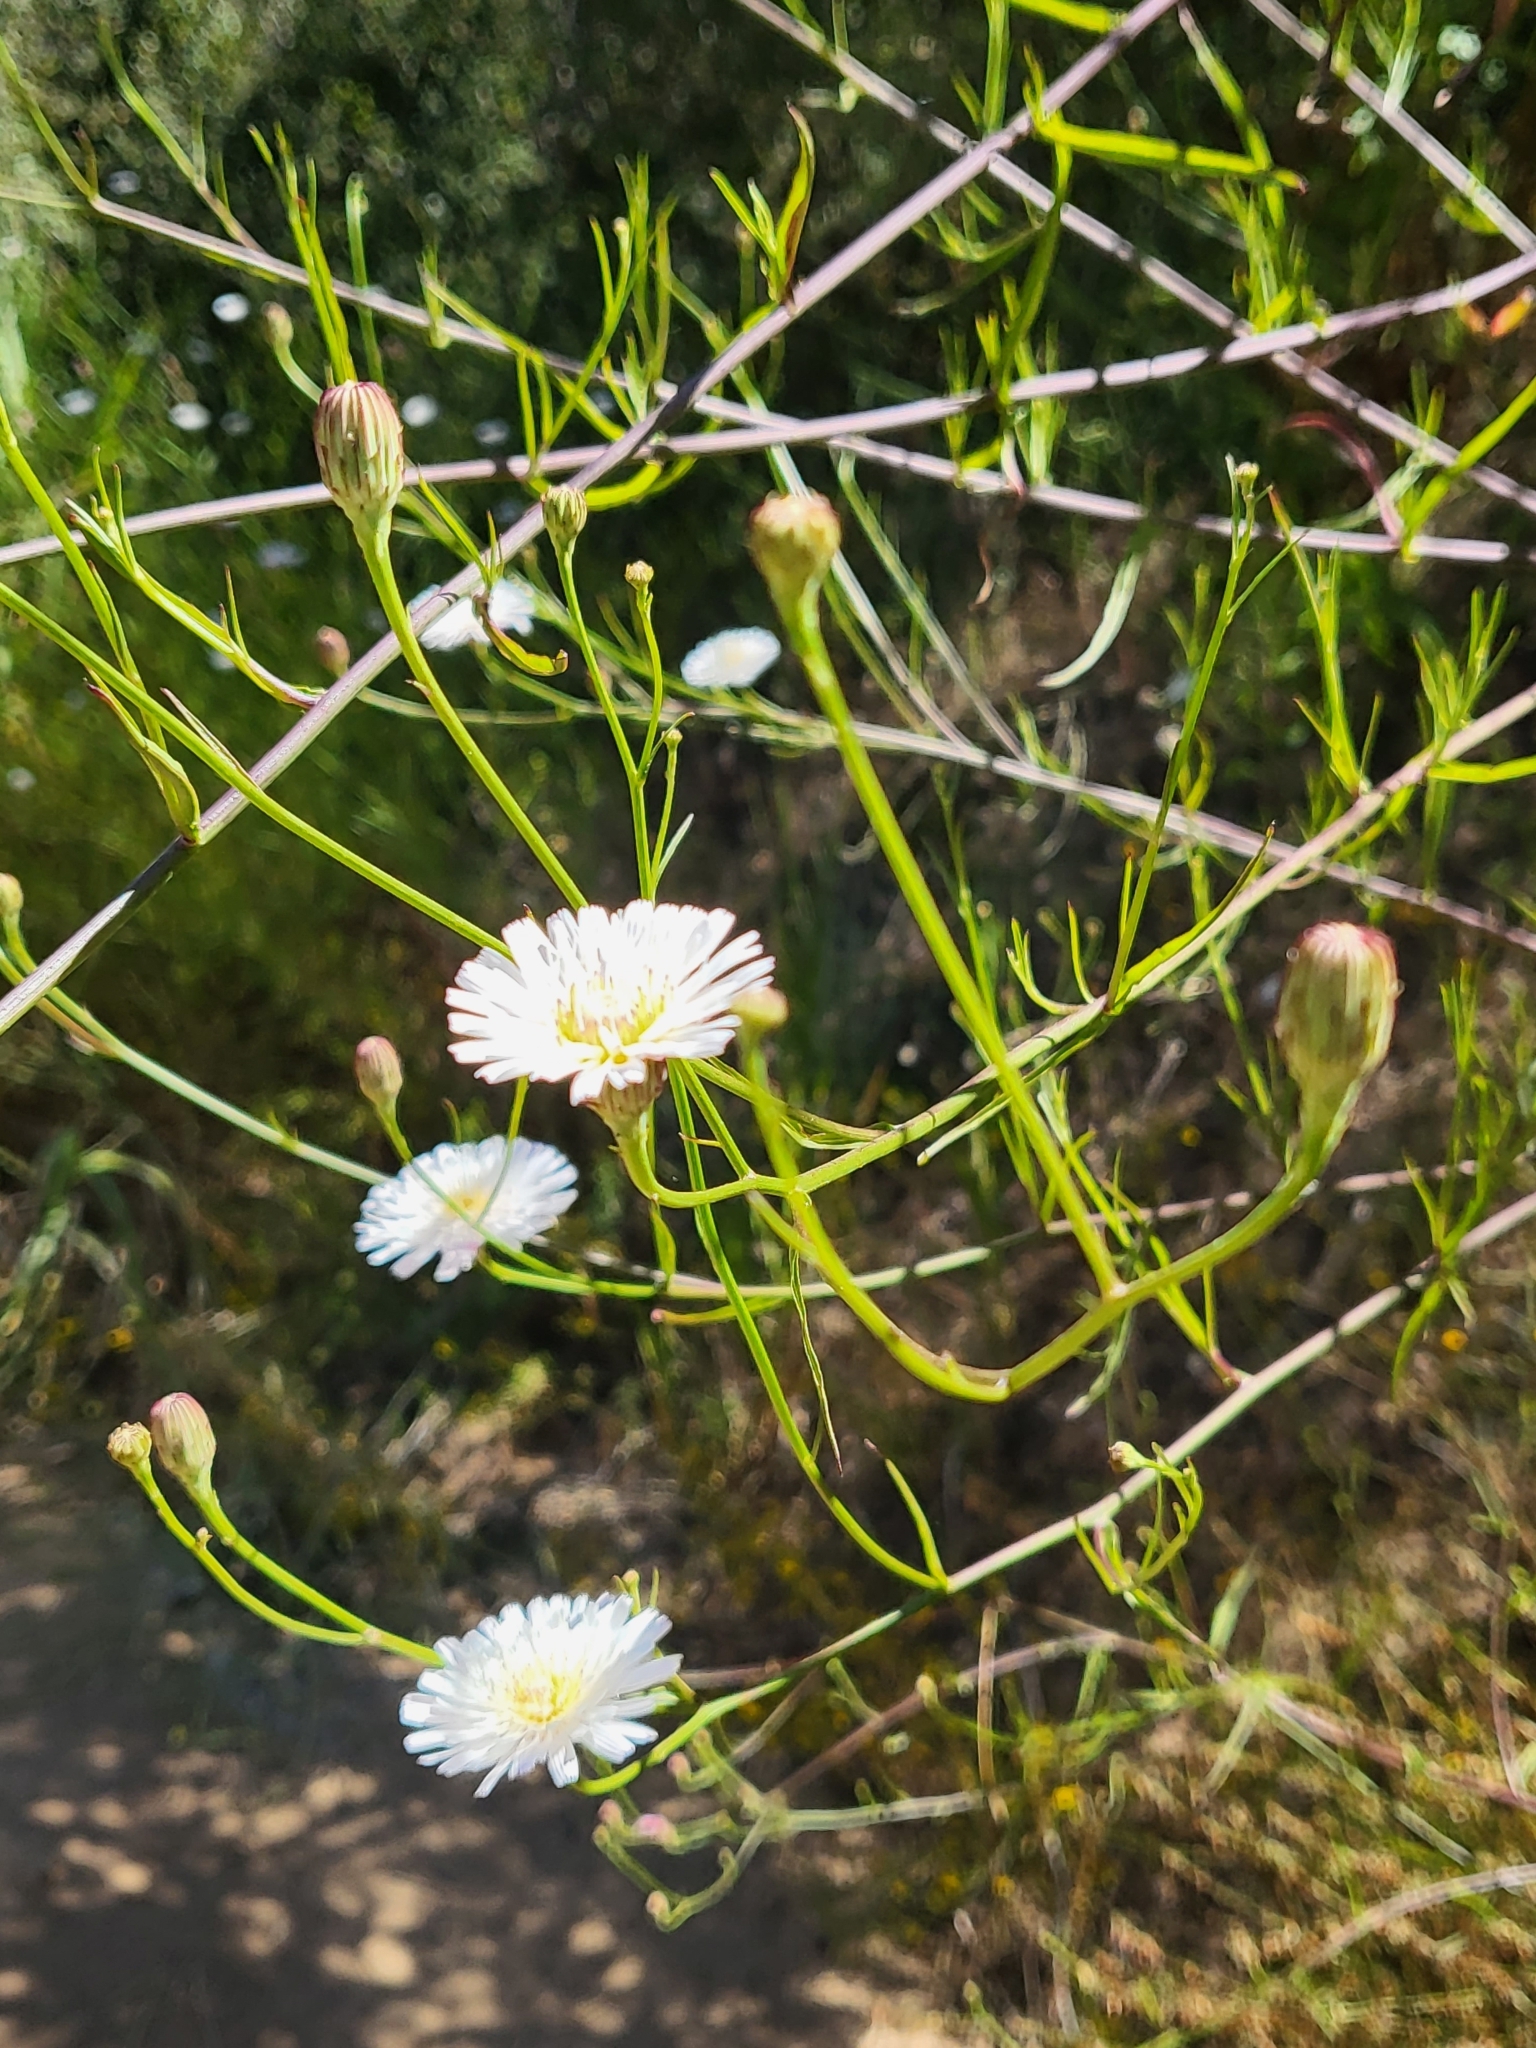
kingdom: Plantae
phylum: Tracheophyta
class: Magnoliopsida
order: Asterales
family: Asteraceae
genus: Malacothrix
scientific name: Malacothrix saxatilis
